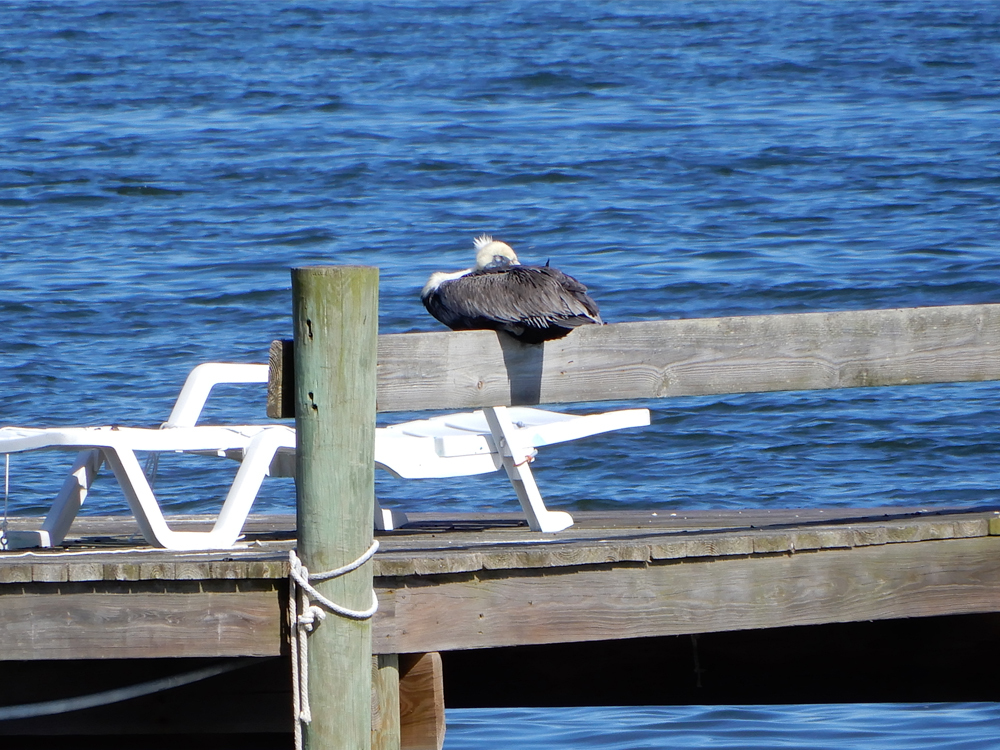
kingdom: Animalia
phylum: Chordata
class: Aves
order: Pelecaniformes
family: Pelecanidae
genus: Pelecanus
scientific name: Pelecanus occidentalis
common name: Brown pelican
